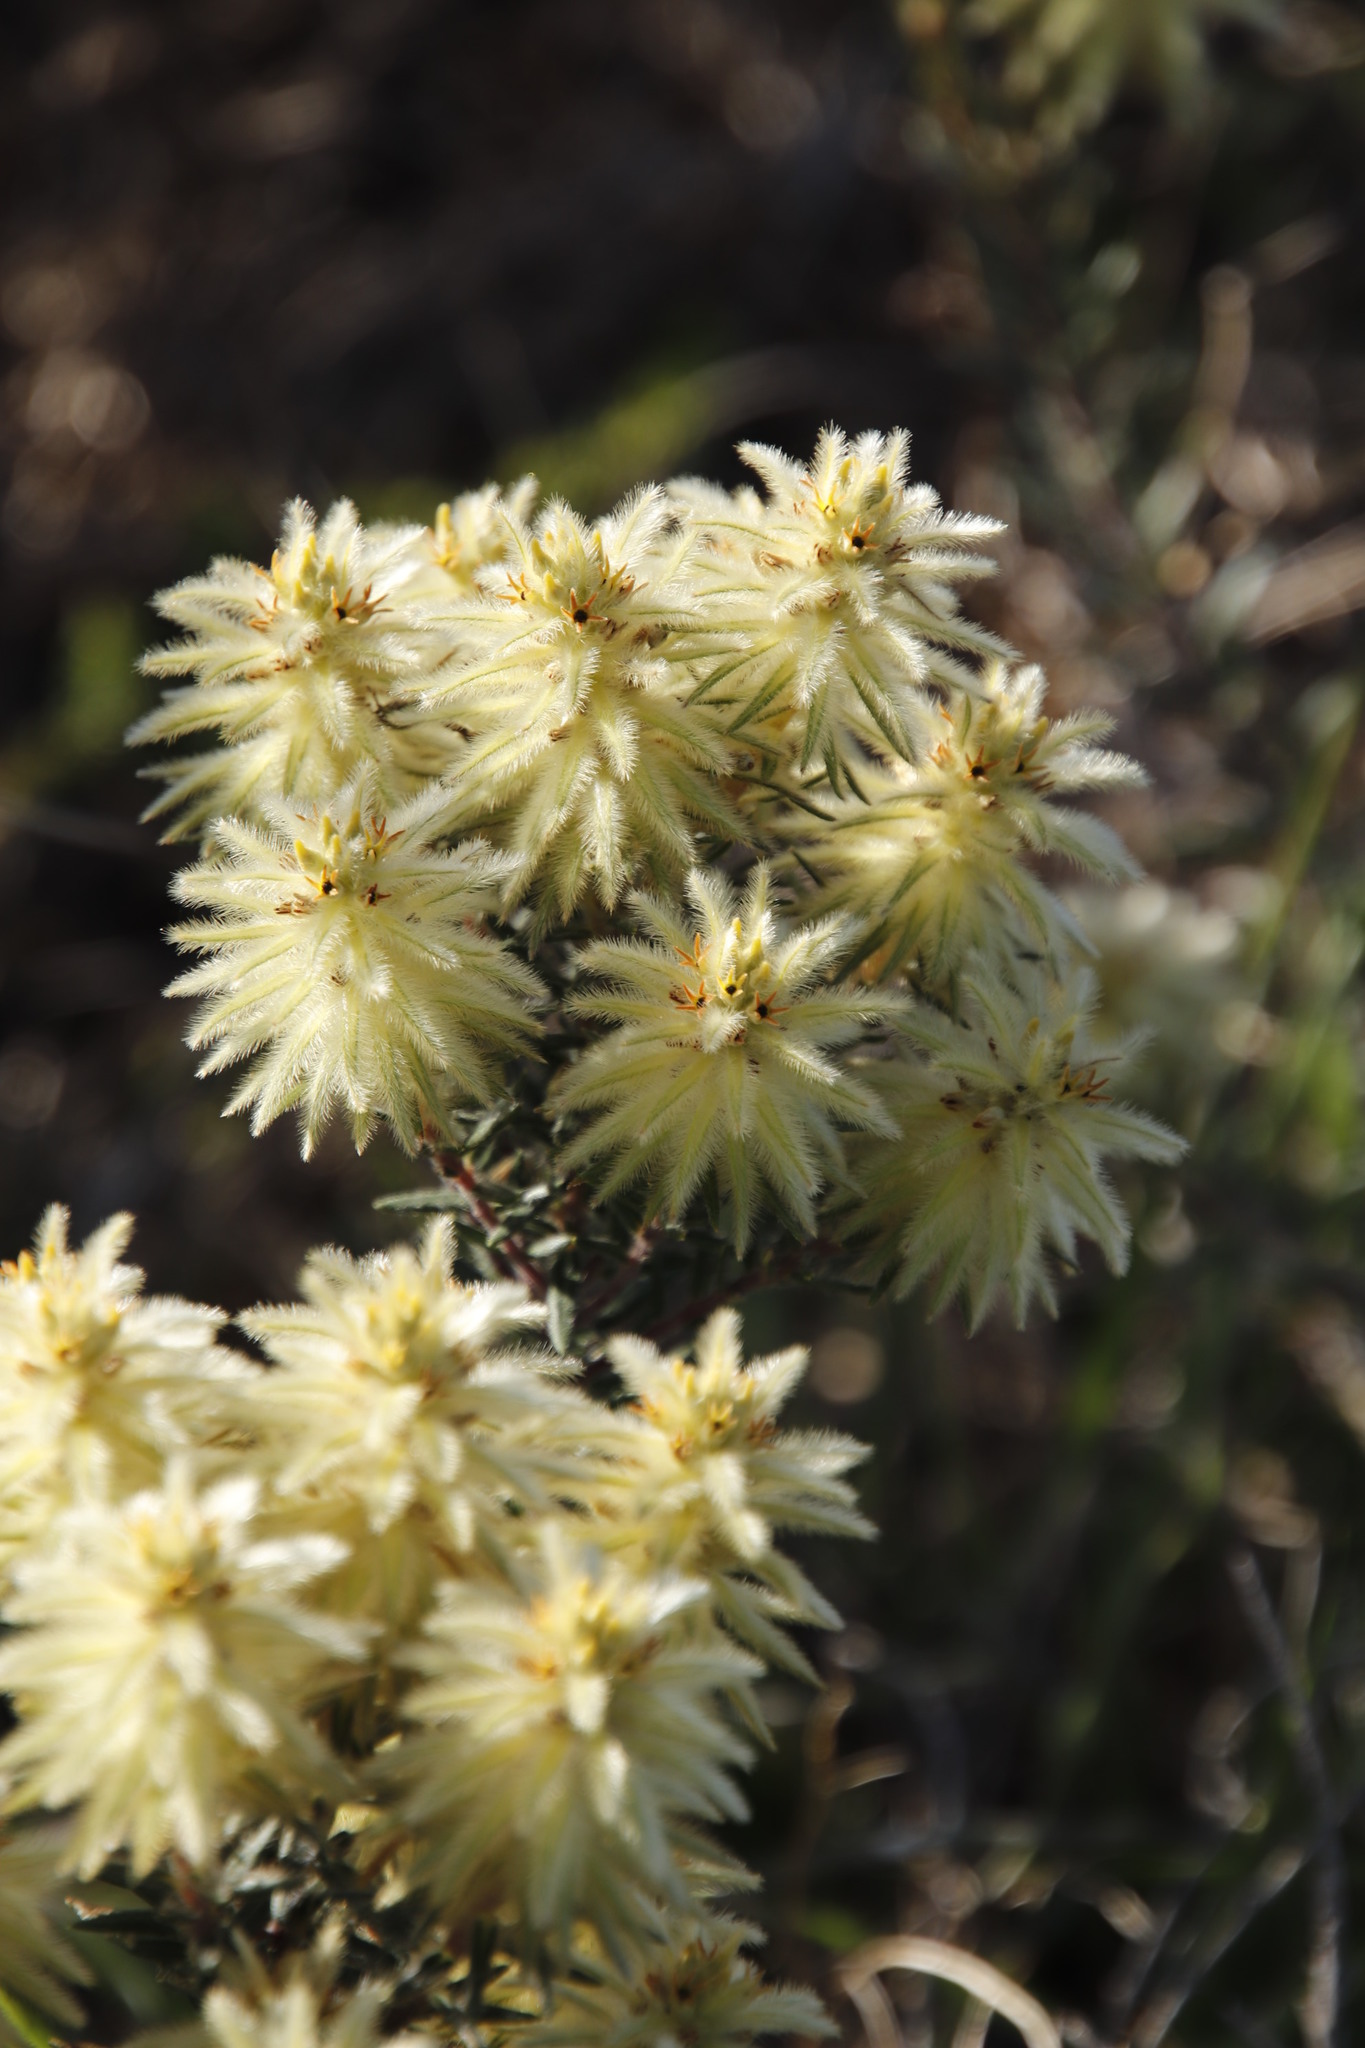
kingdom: Plantae
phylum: Tracheophyta
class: Magnoliopsida
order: Rosales
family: Rhamnaceae
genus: Phylica
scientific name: Phylica plumosa
